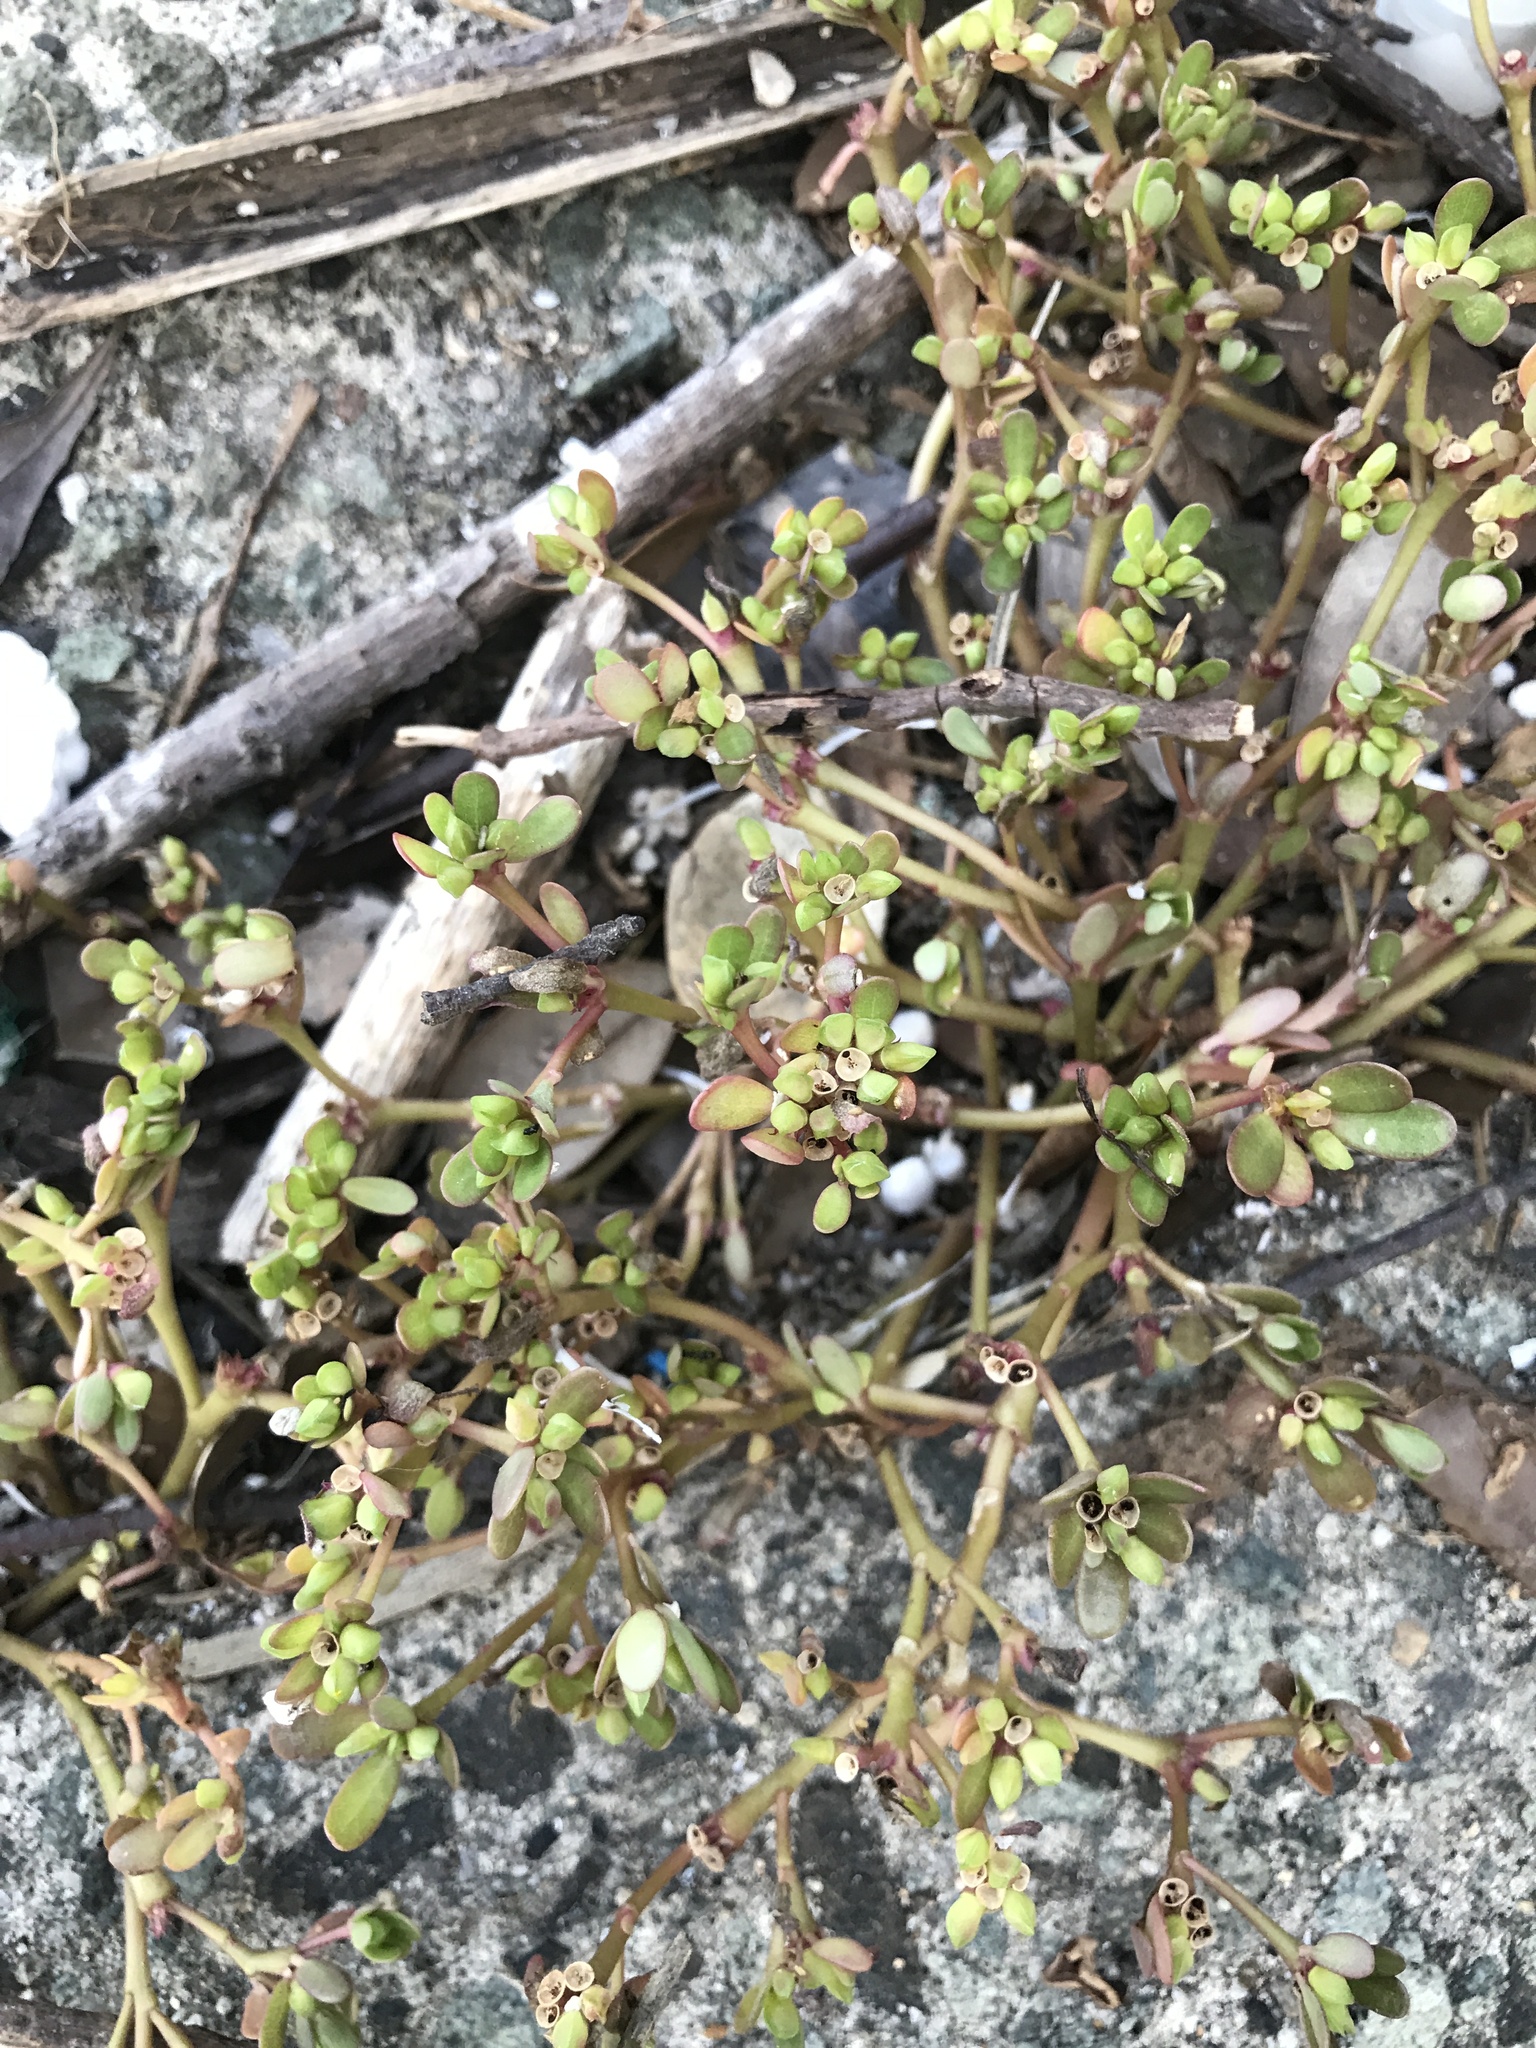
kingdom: Plantae
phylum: Tracheophyta
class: Magnoliopsida
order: Caryophyllales
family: Portulacaceae
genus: Portulaca
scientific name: Portulaca oleracea
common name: Common purslane
